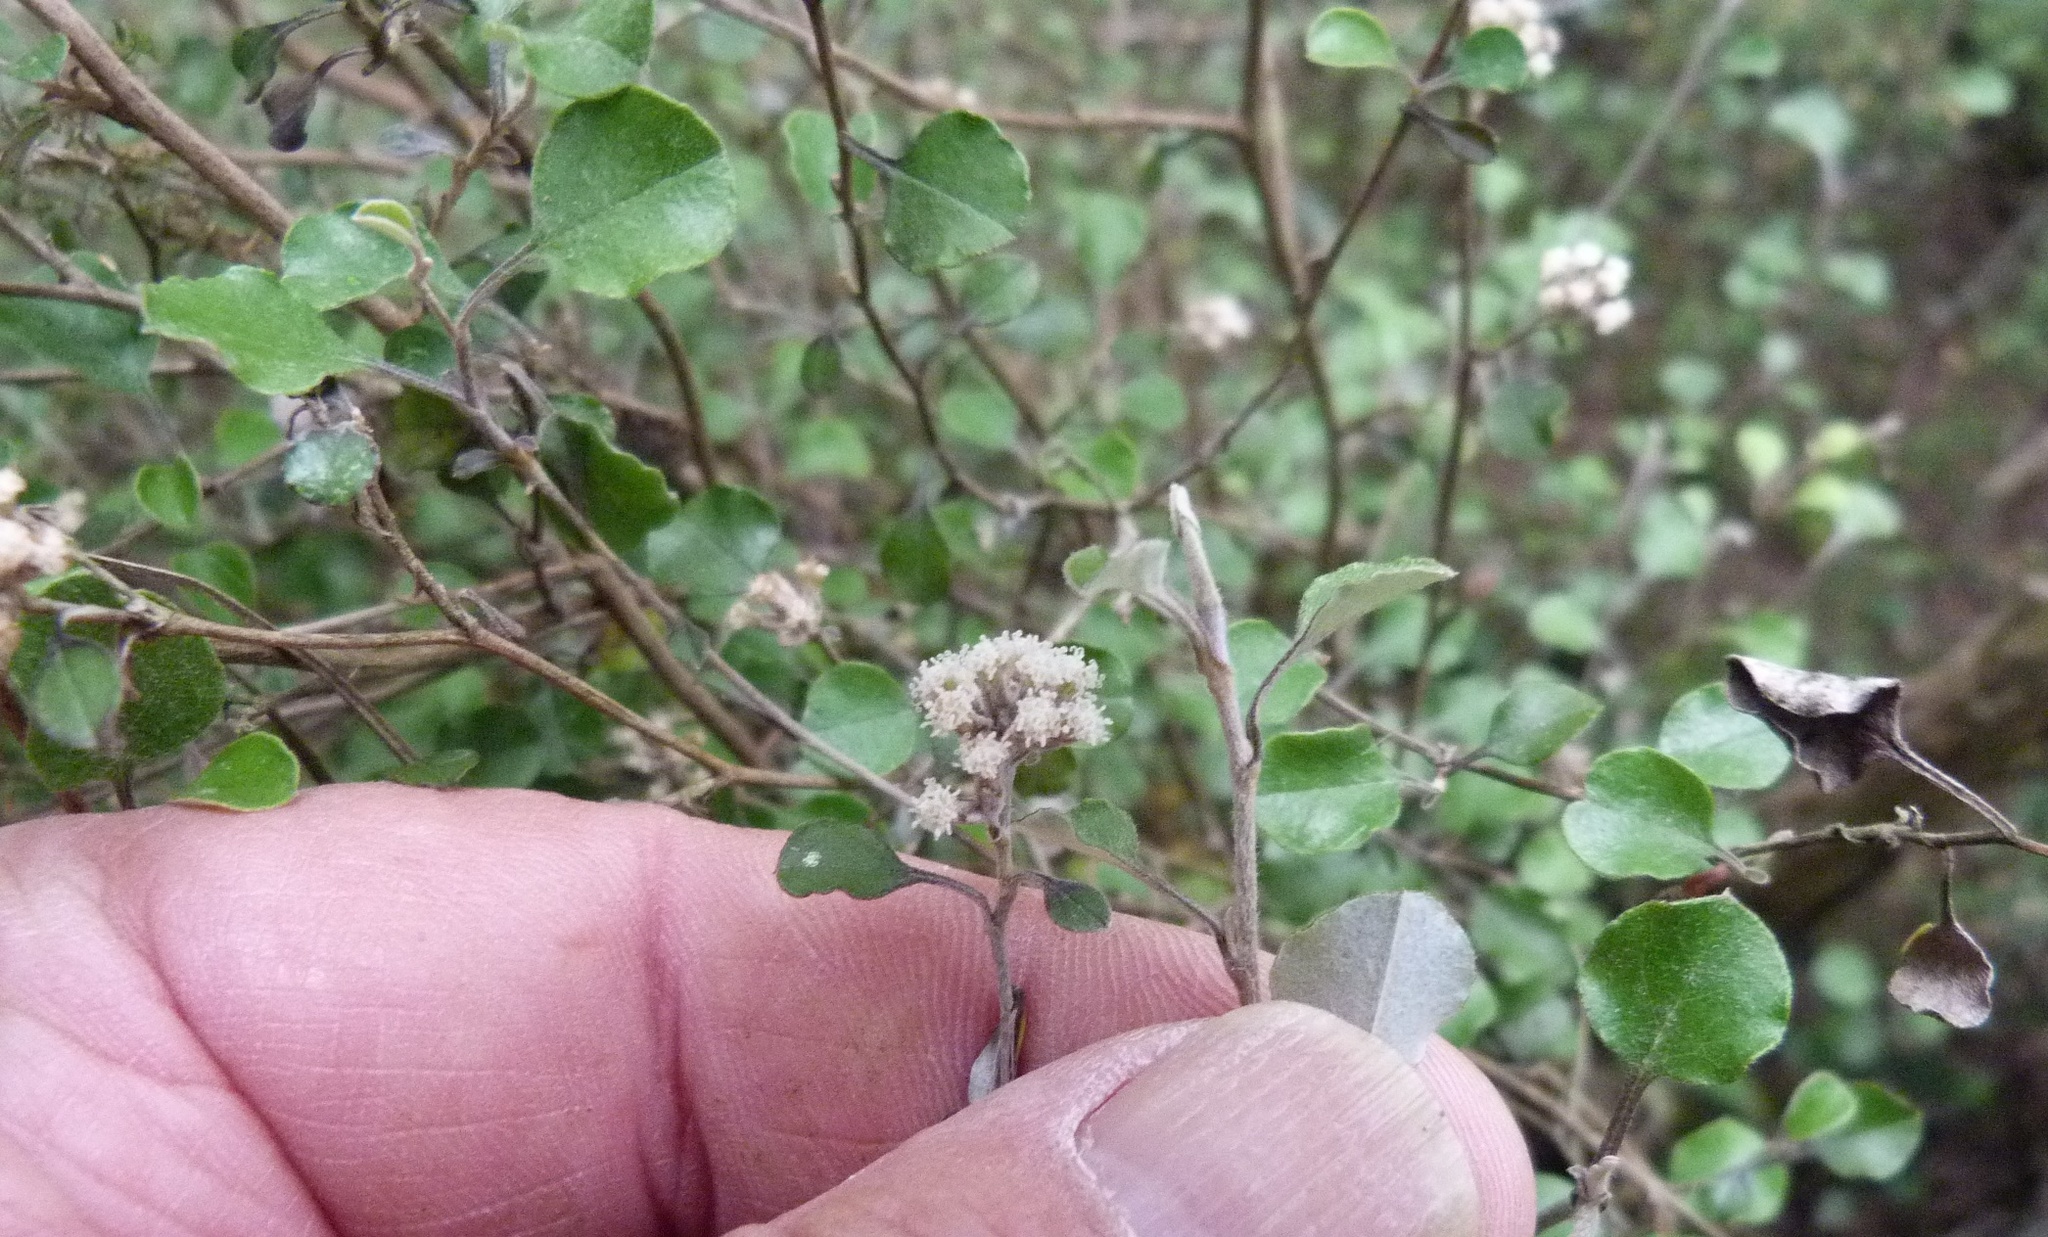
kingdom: Plantae
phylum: Tracheophyta
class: Magnoliopsida
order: Asterales
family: Asteraceae
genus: Ozothamnus
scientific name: Ozothamnus glomeratus
